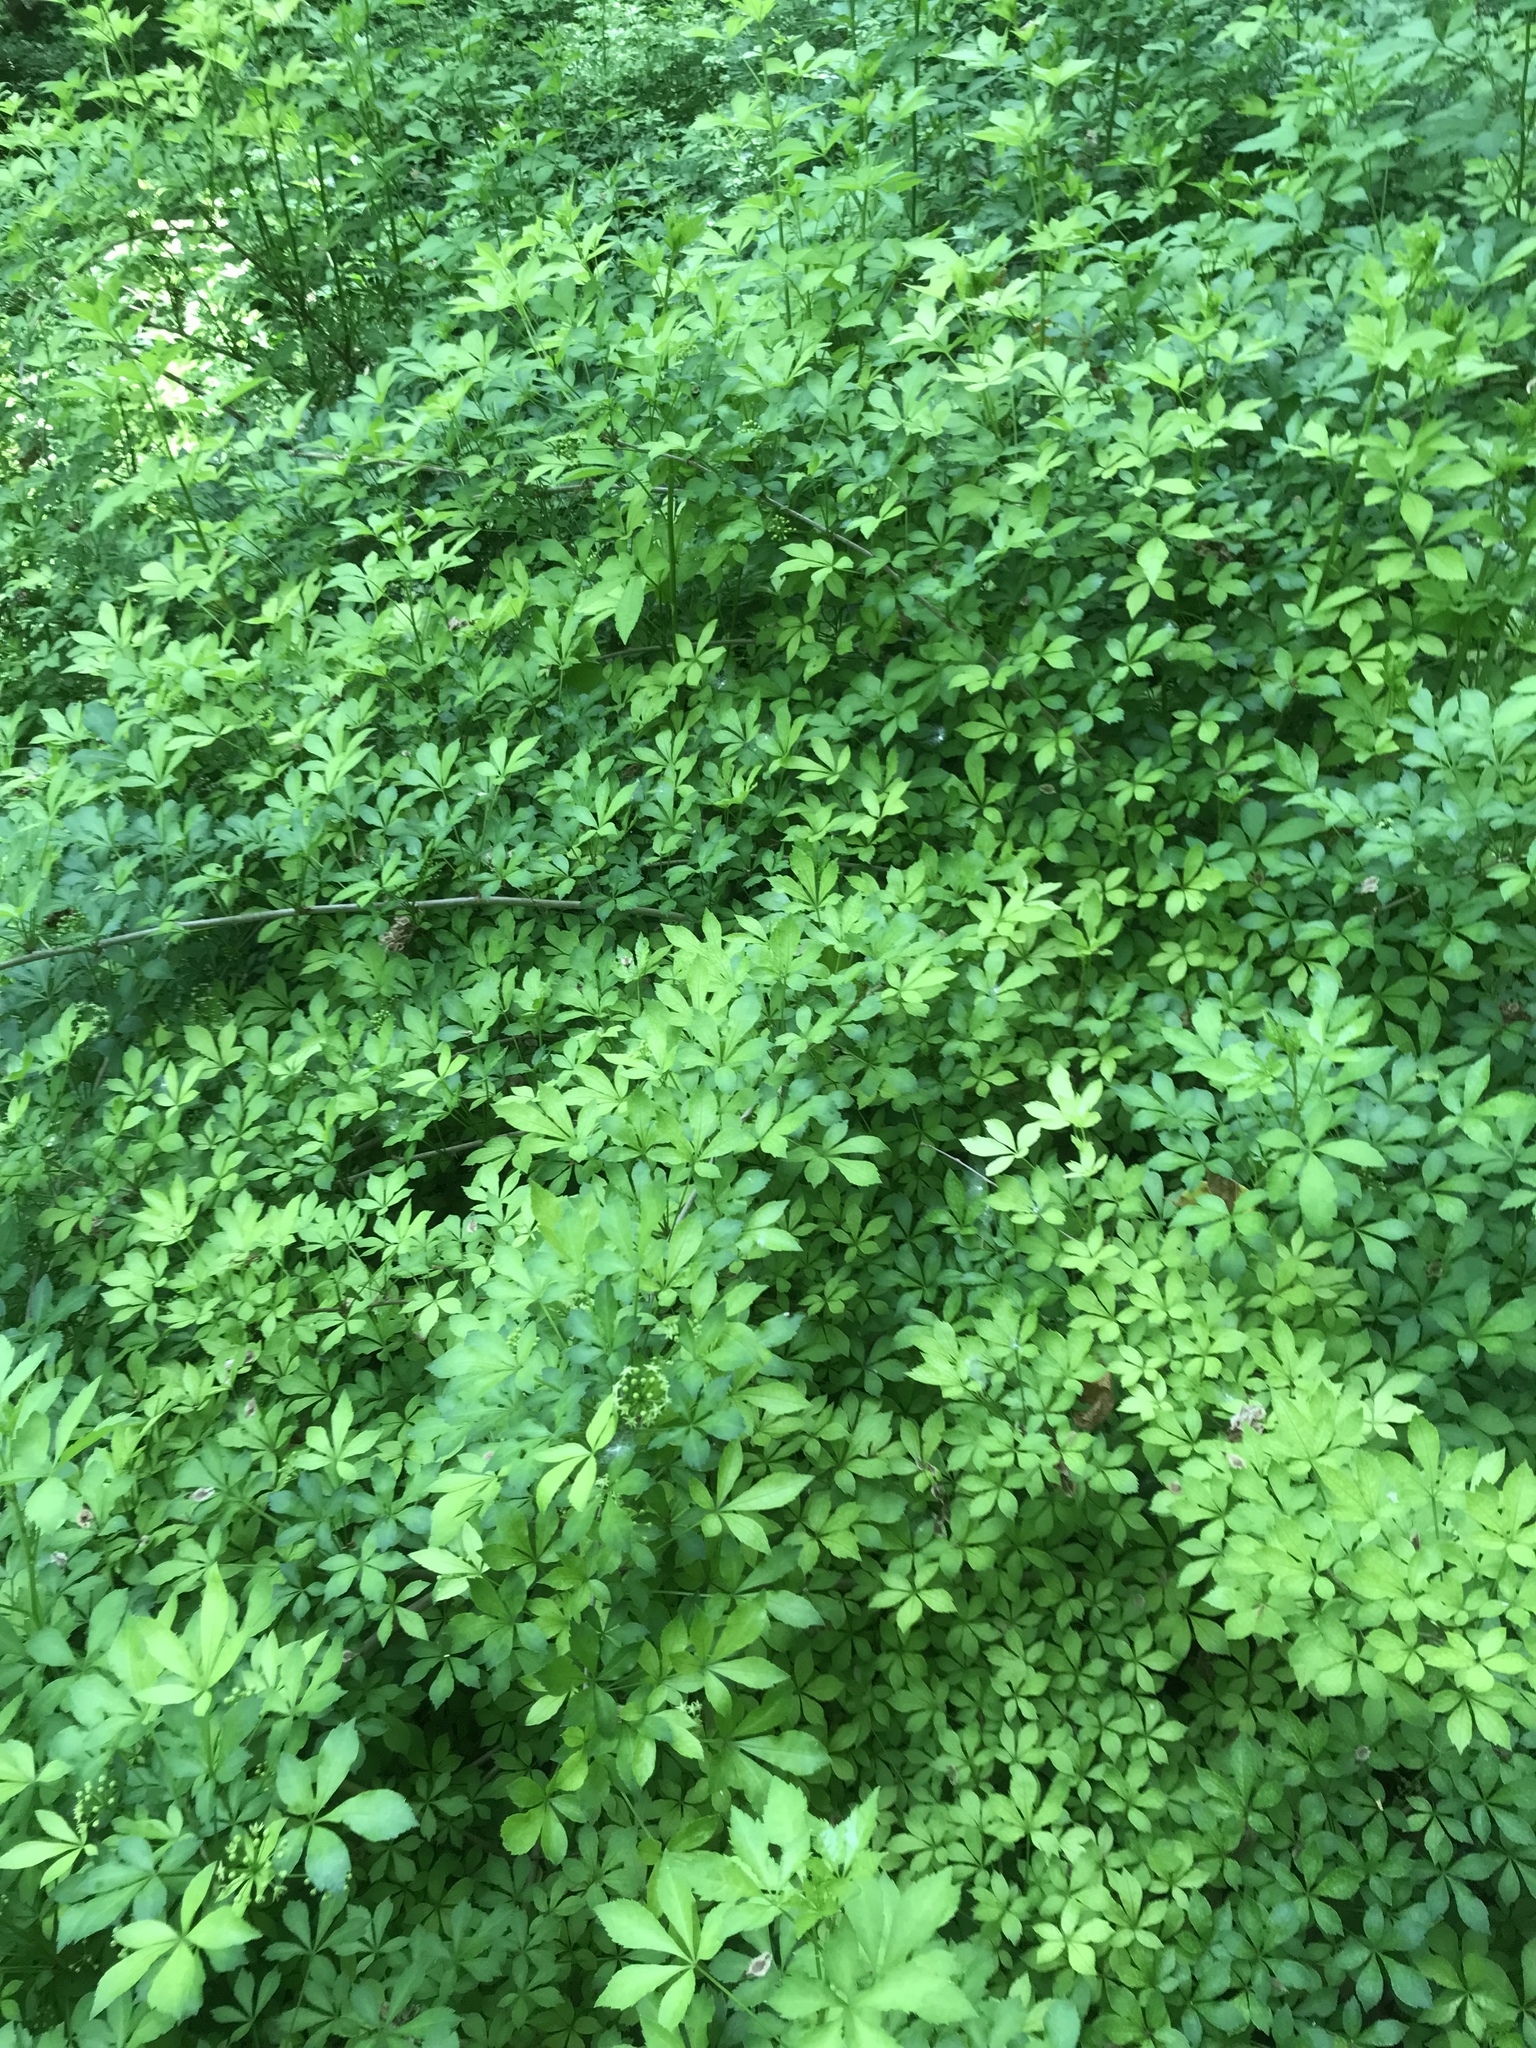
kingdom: Plantae
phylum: Tracheophyta
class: Magnoliopsida
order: Apiales
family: Araliaceae
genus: Eleutherococcus
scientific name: Eleutherococcus sieboldianus
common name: Ginseng
